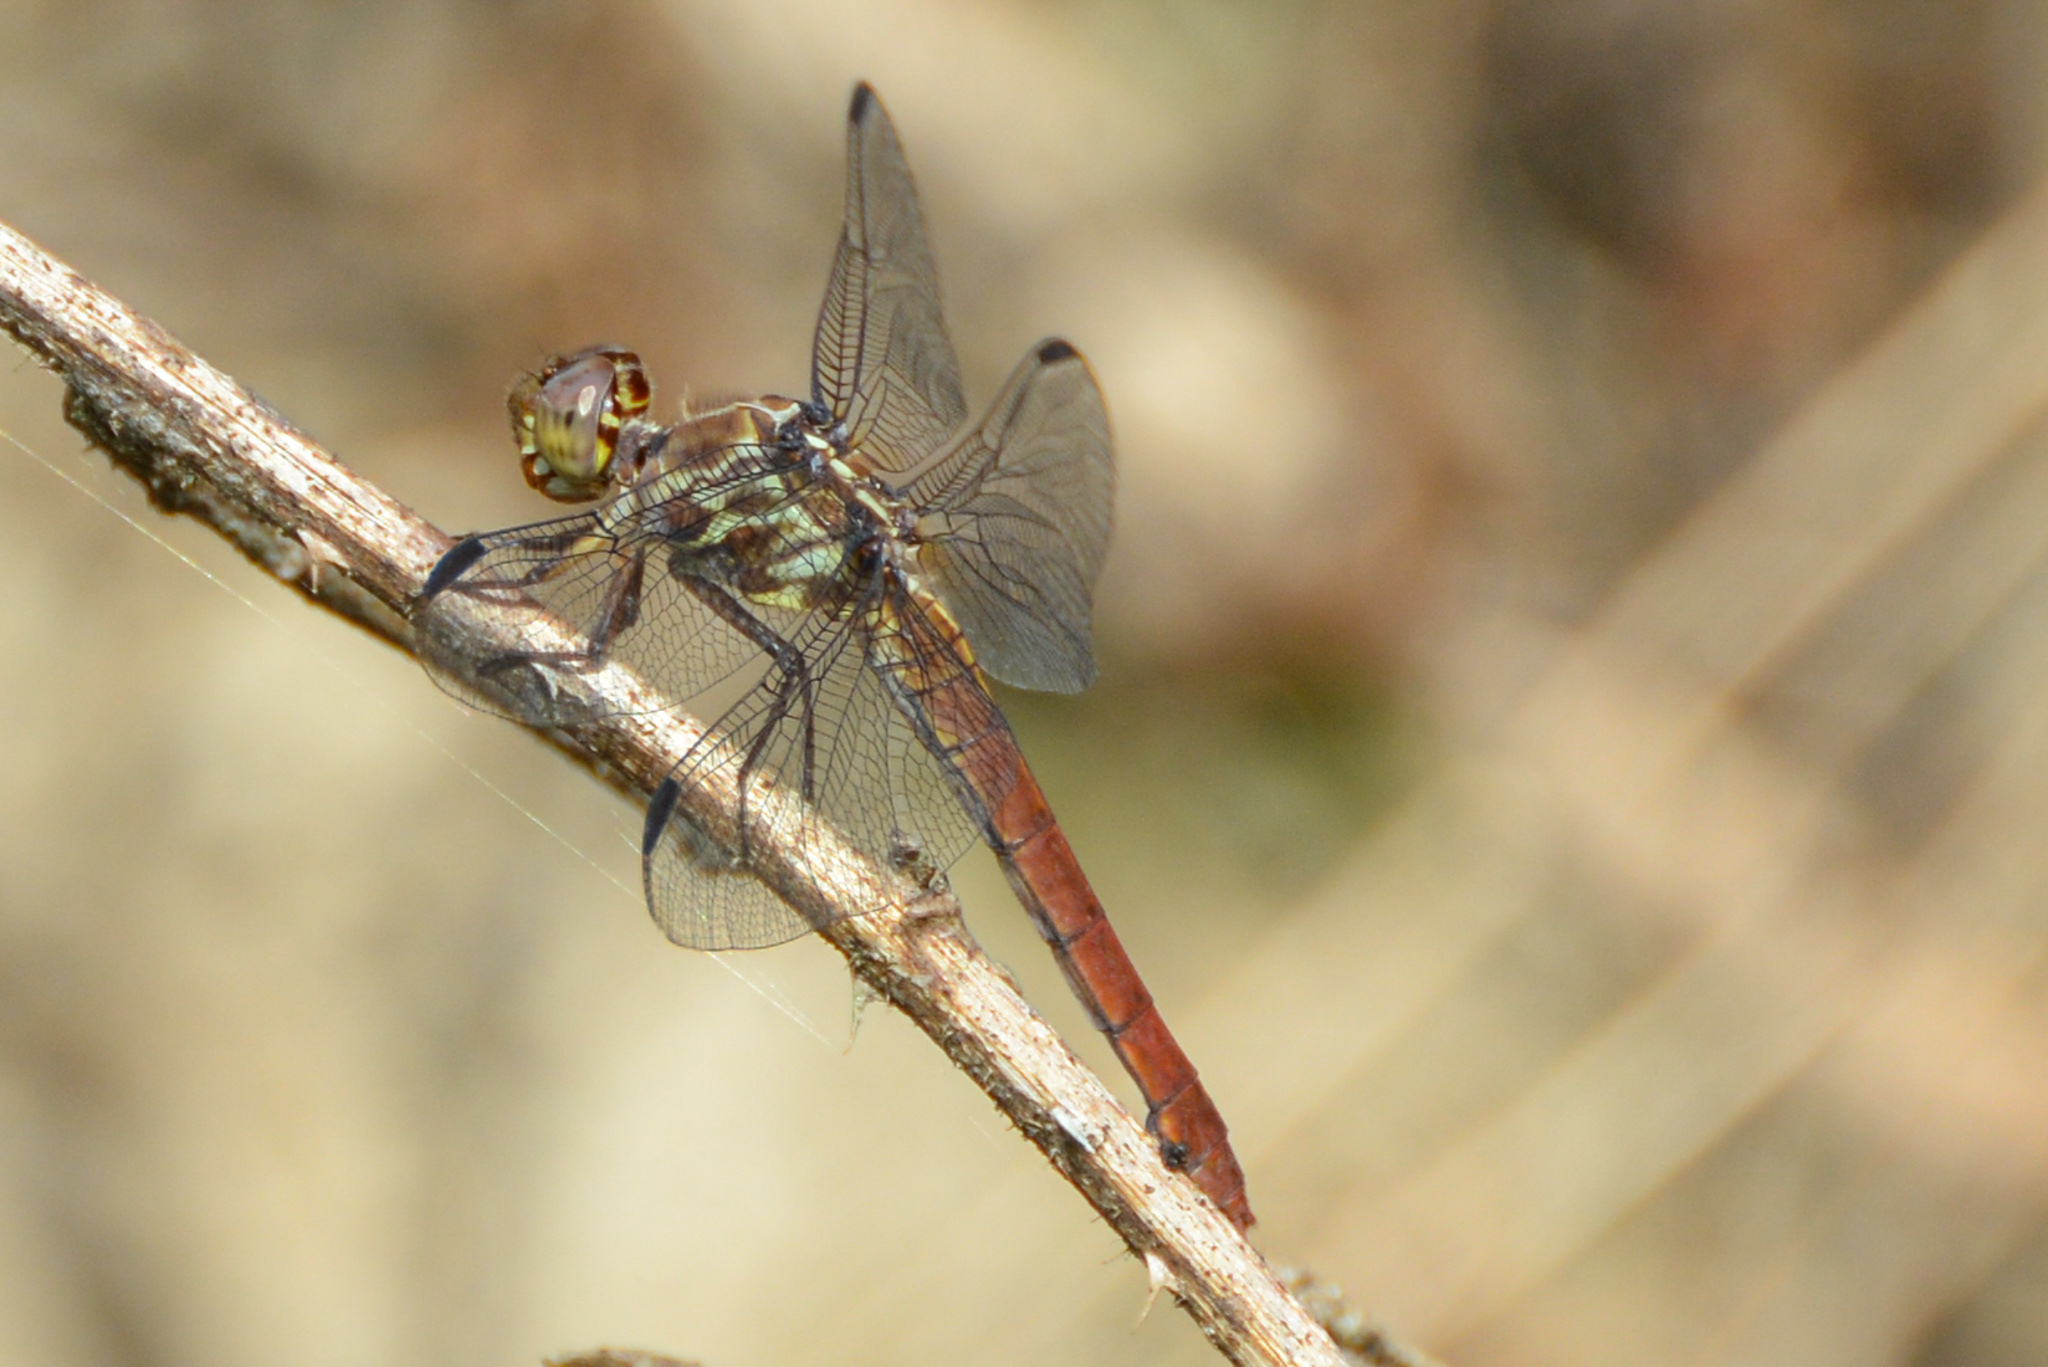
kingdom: Animalia
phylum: Arthropoda
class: Insecta
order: Odonata
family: Libellulidae
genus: Orthemis
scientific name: Orthemis ferruginea
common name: Roseate skimmer
